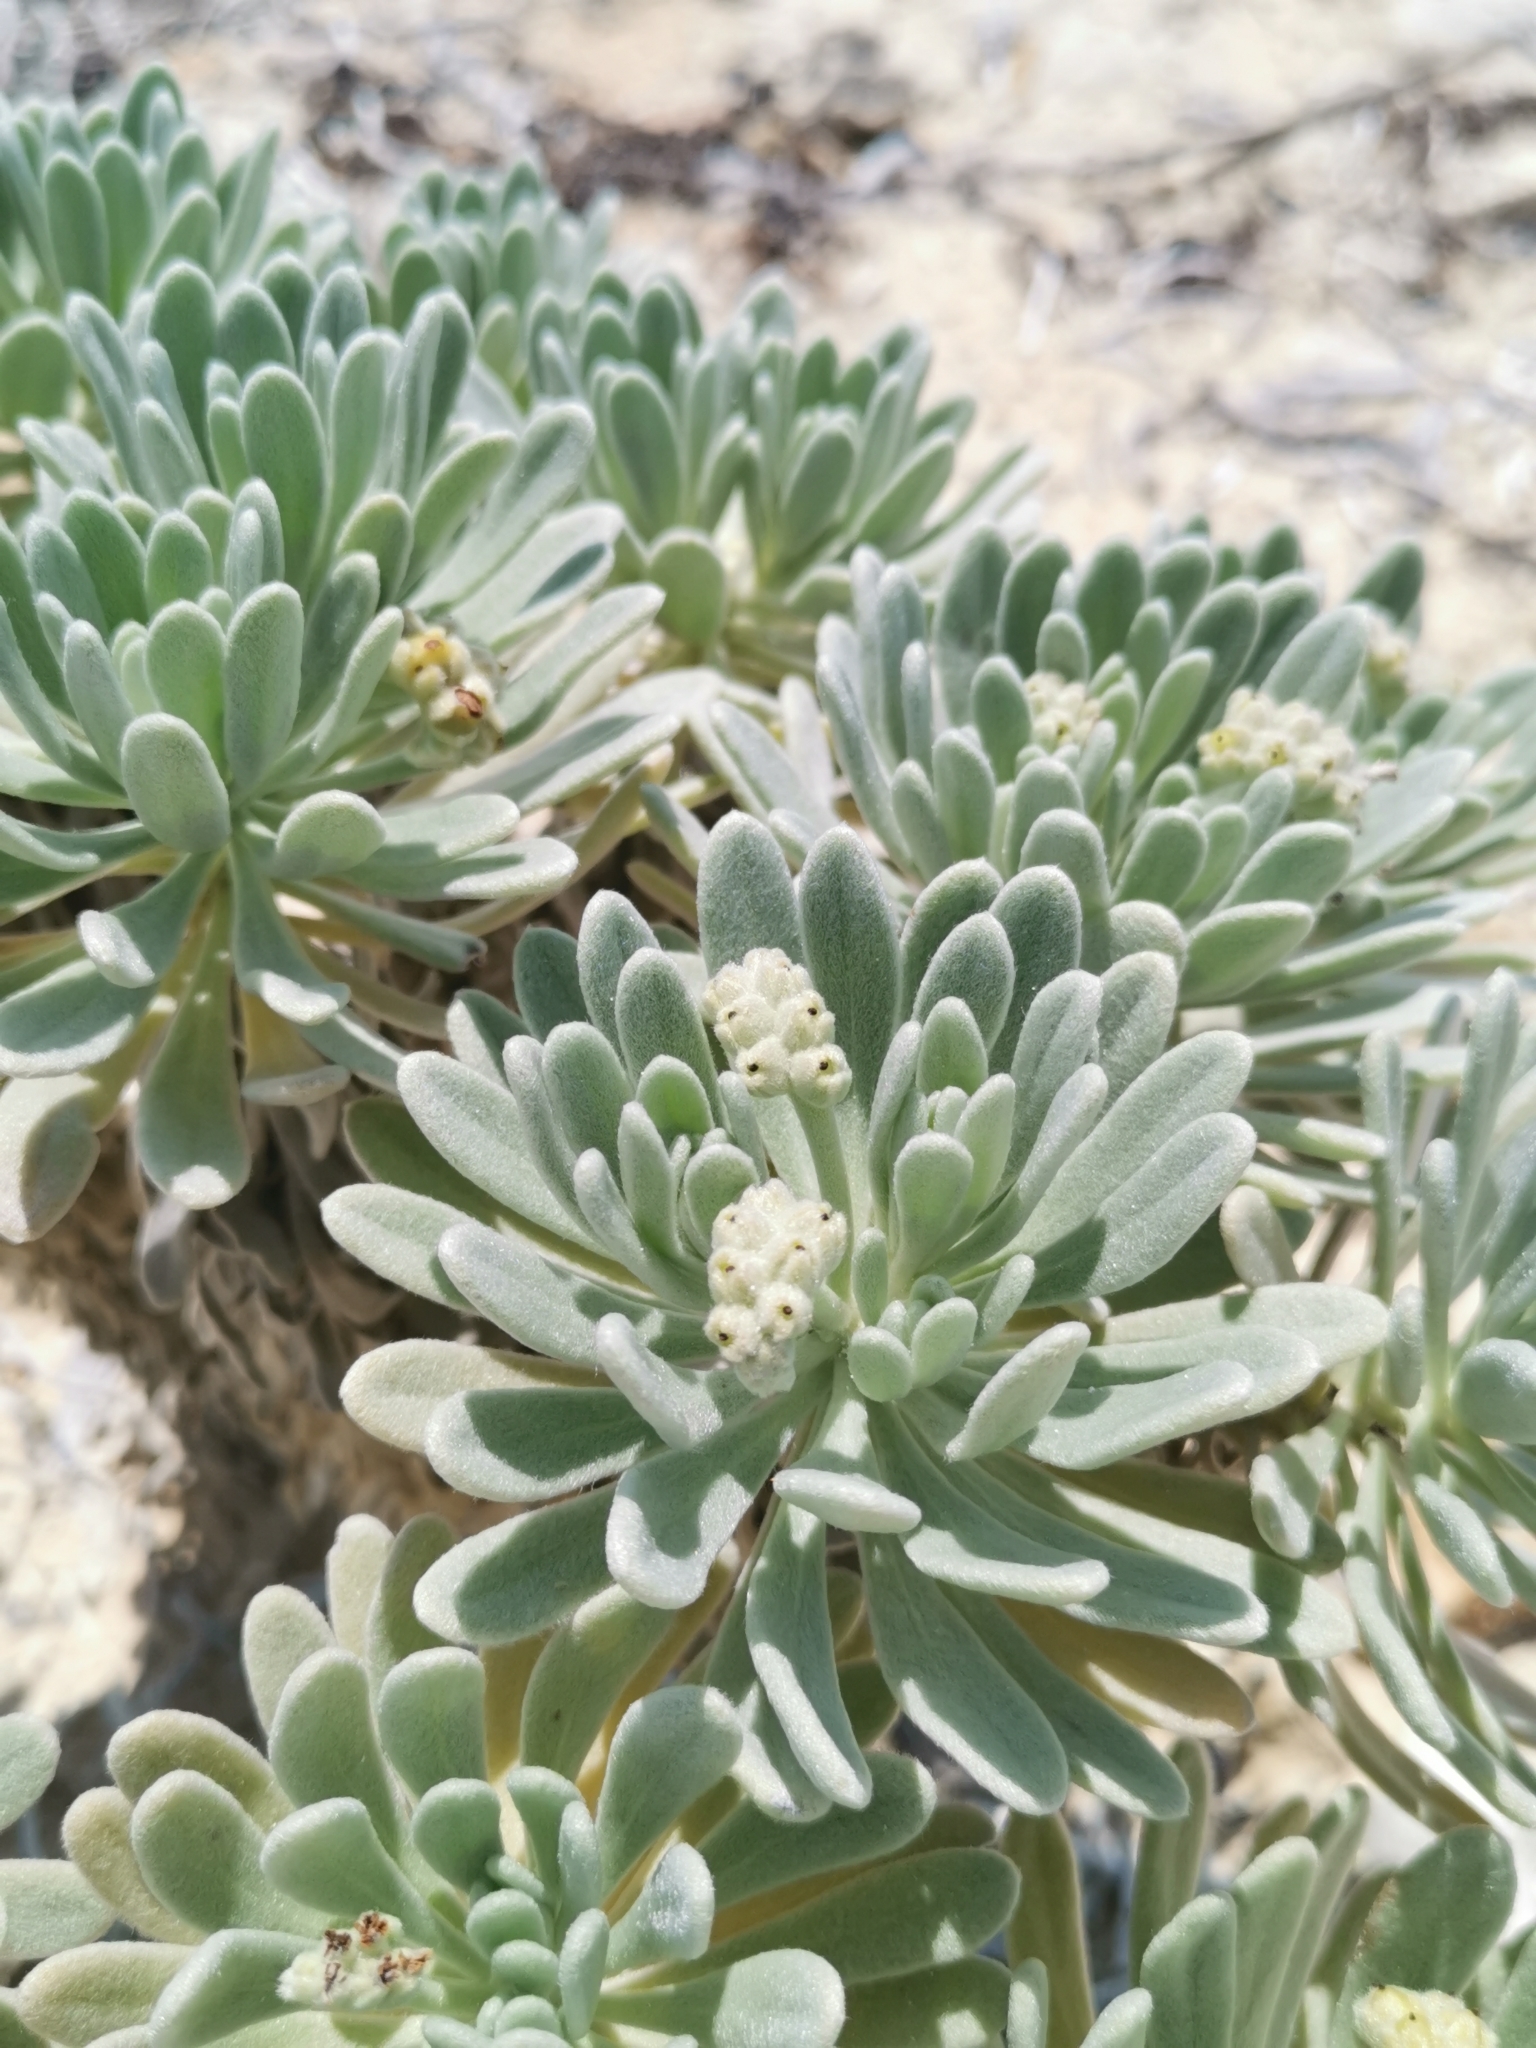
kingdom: Plantae
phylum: Tracheophyta
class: Magnoliopsida
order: Boraginales
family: Heliotropiaceae
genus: Tournefortia
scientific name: Tournefortia gnaphalodes
